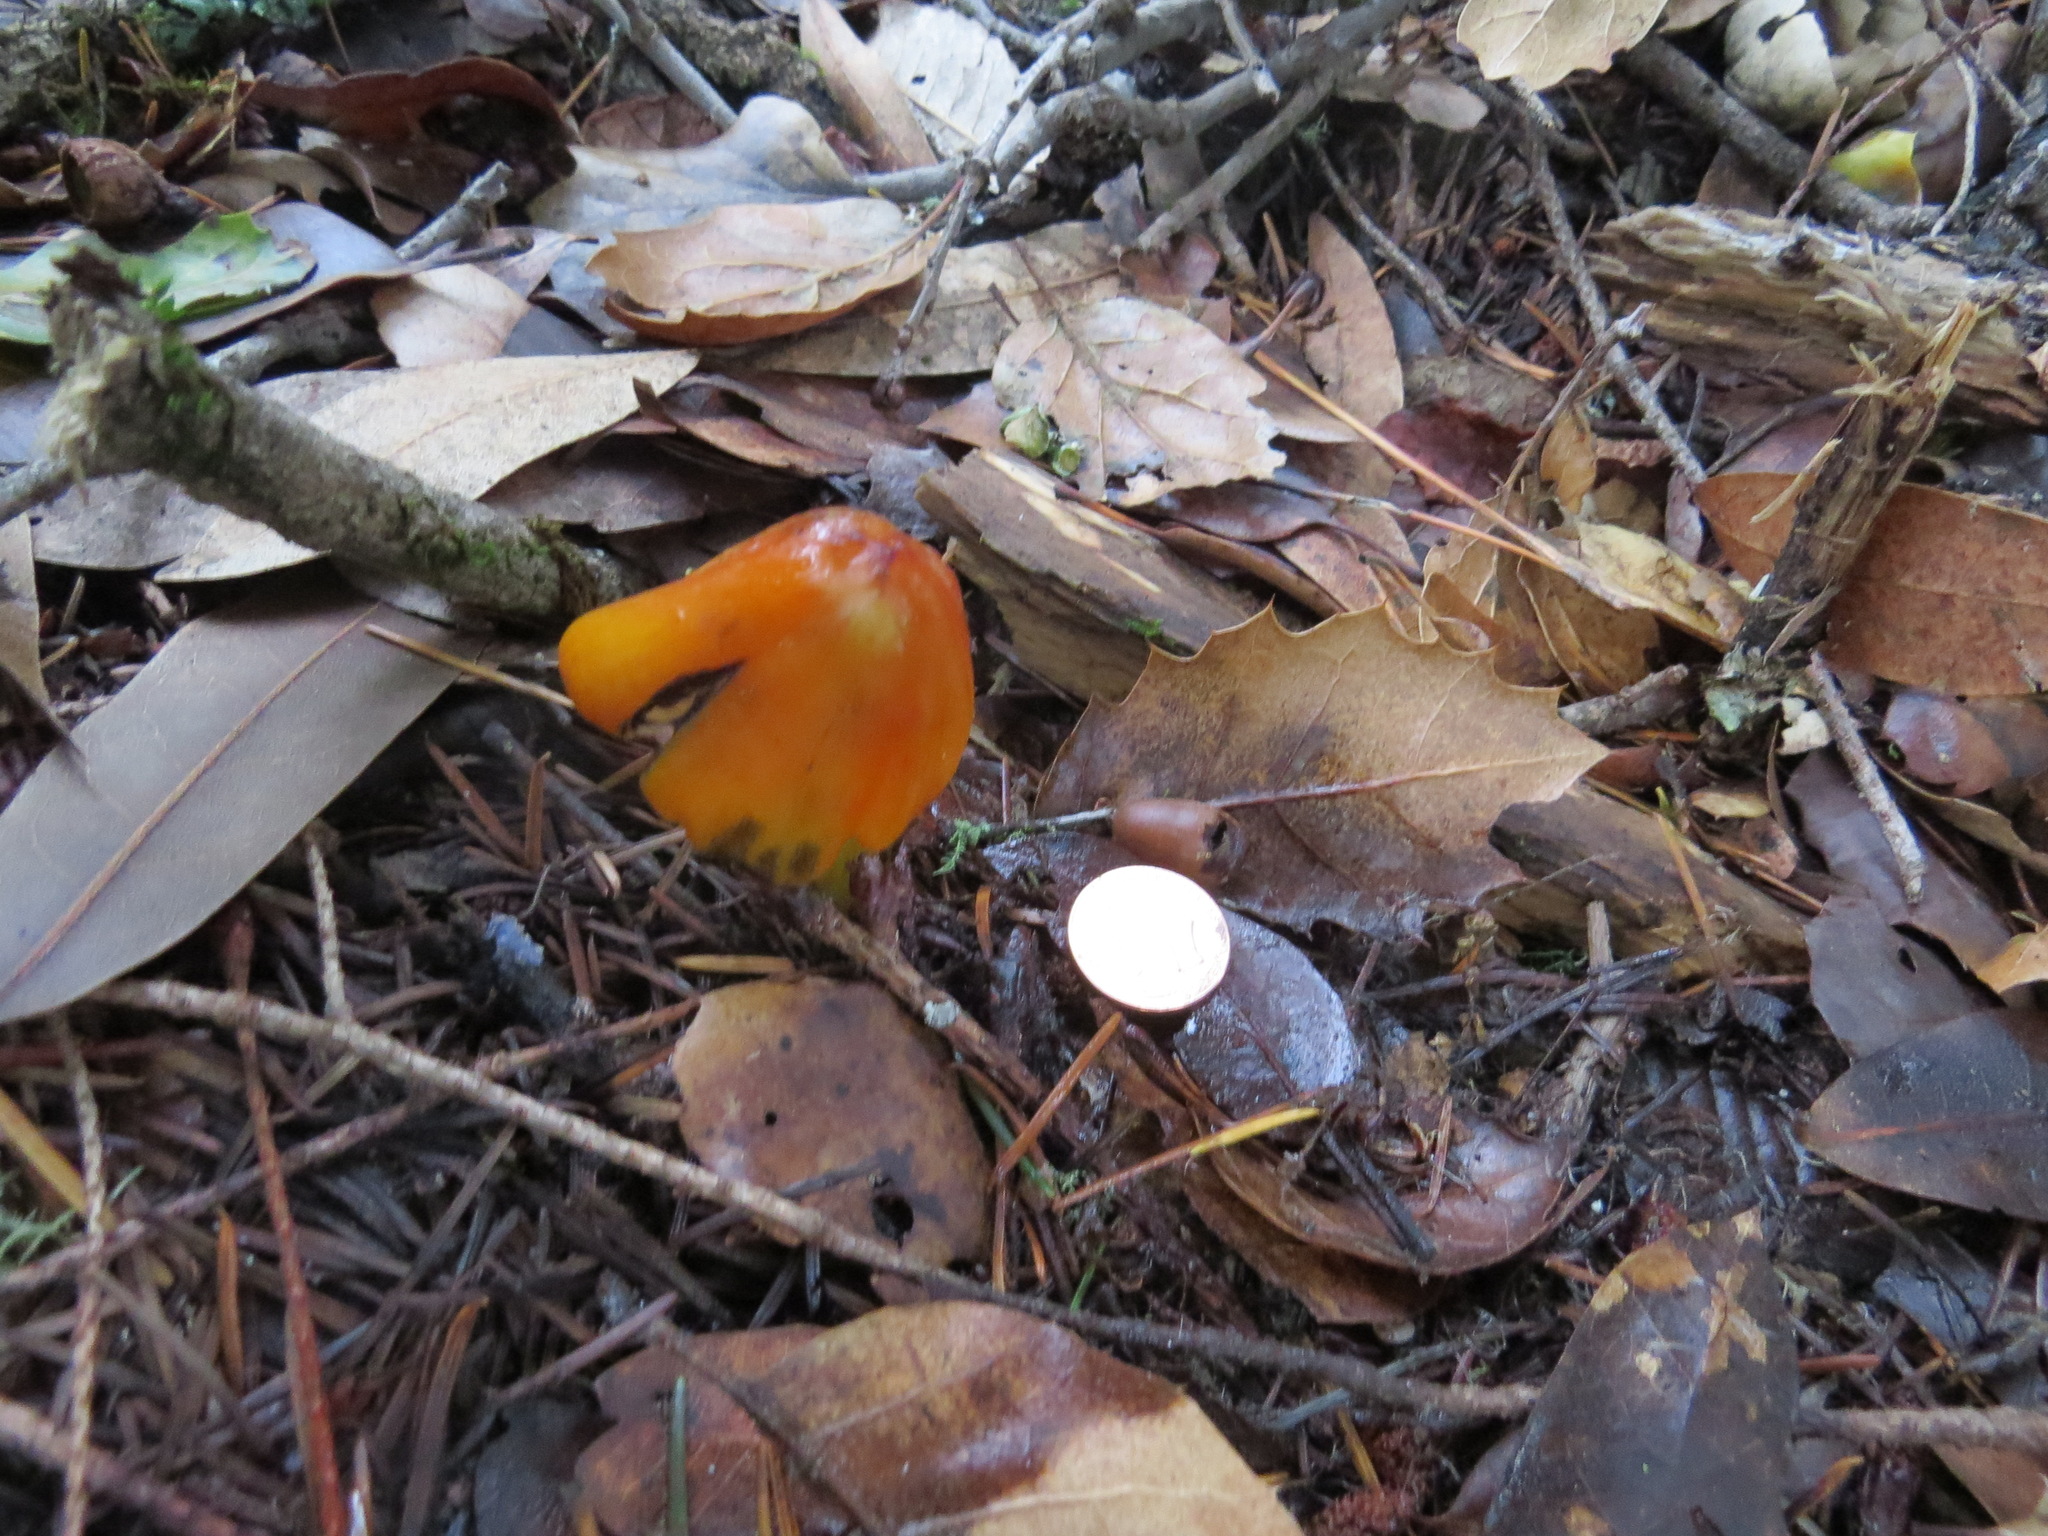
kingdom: Fungi
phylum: Basidiomycota
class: Agaricomycetes
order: Agaricales
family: Hygrophoraceae
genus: Hygrocybe
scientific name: Hygrocybe singeri
